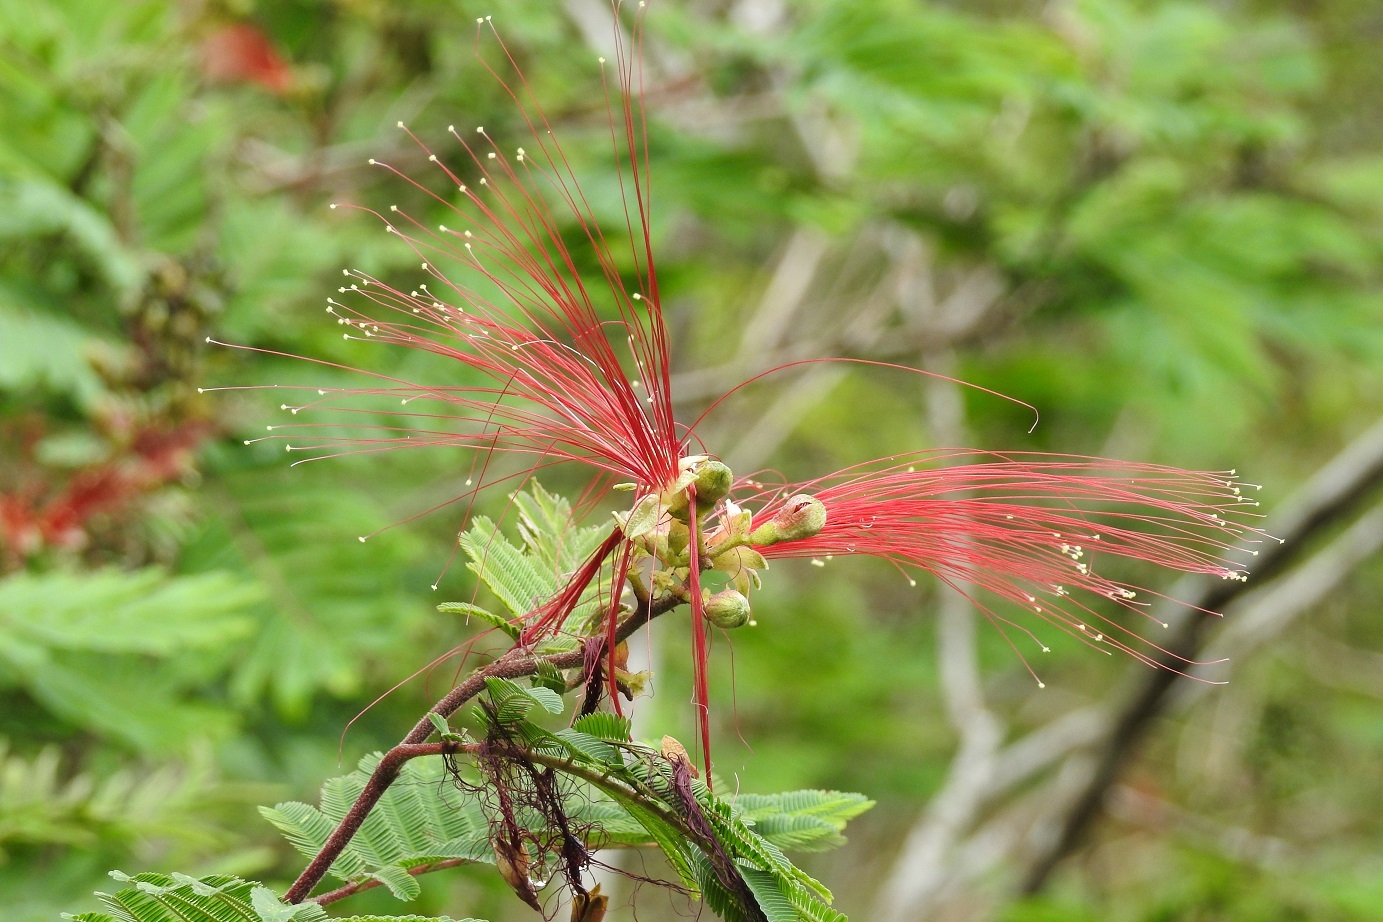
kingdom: Plantae
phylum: Tracheophyta
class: Magnoliopsida
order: Fabales
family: Fabaceae
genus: Calliandra
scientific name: Calliandra houstoniana
